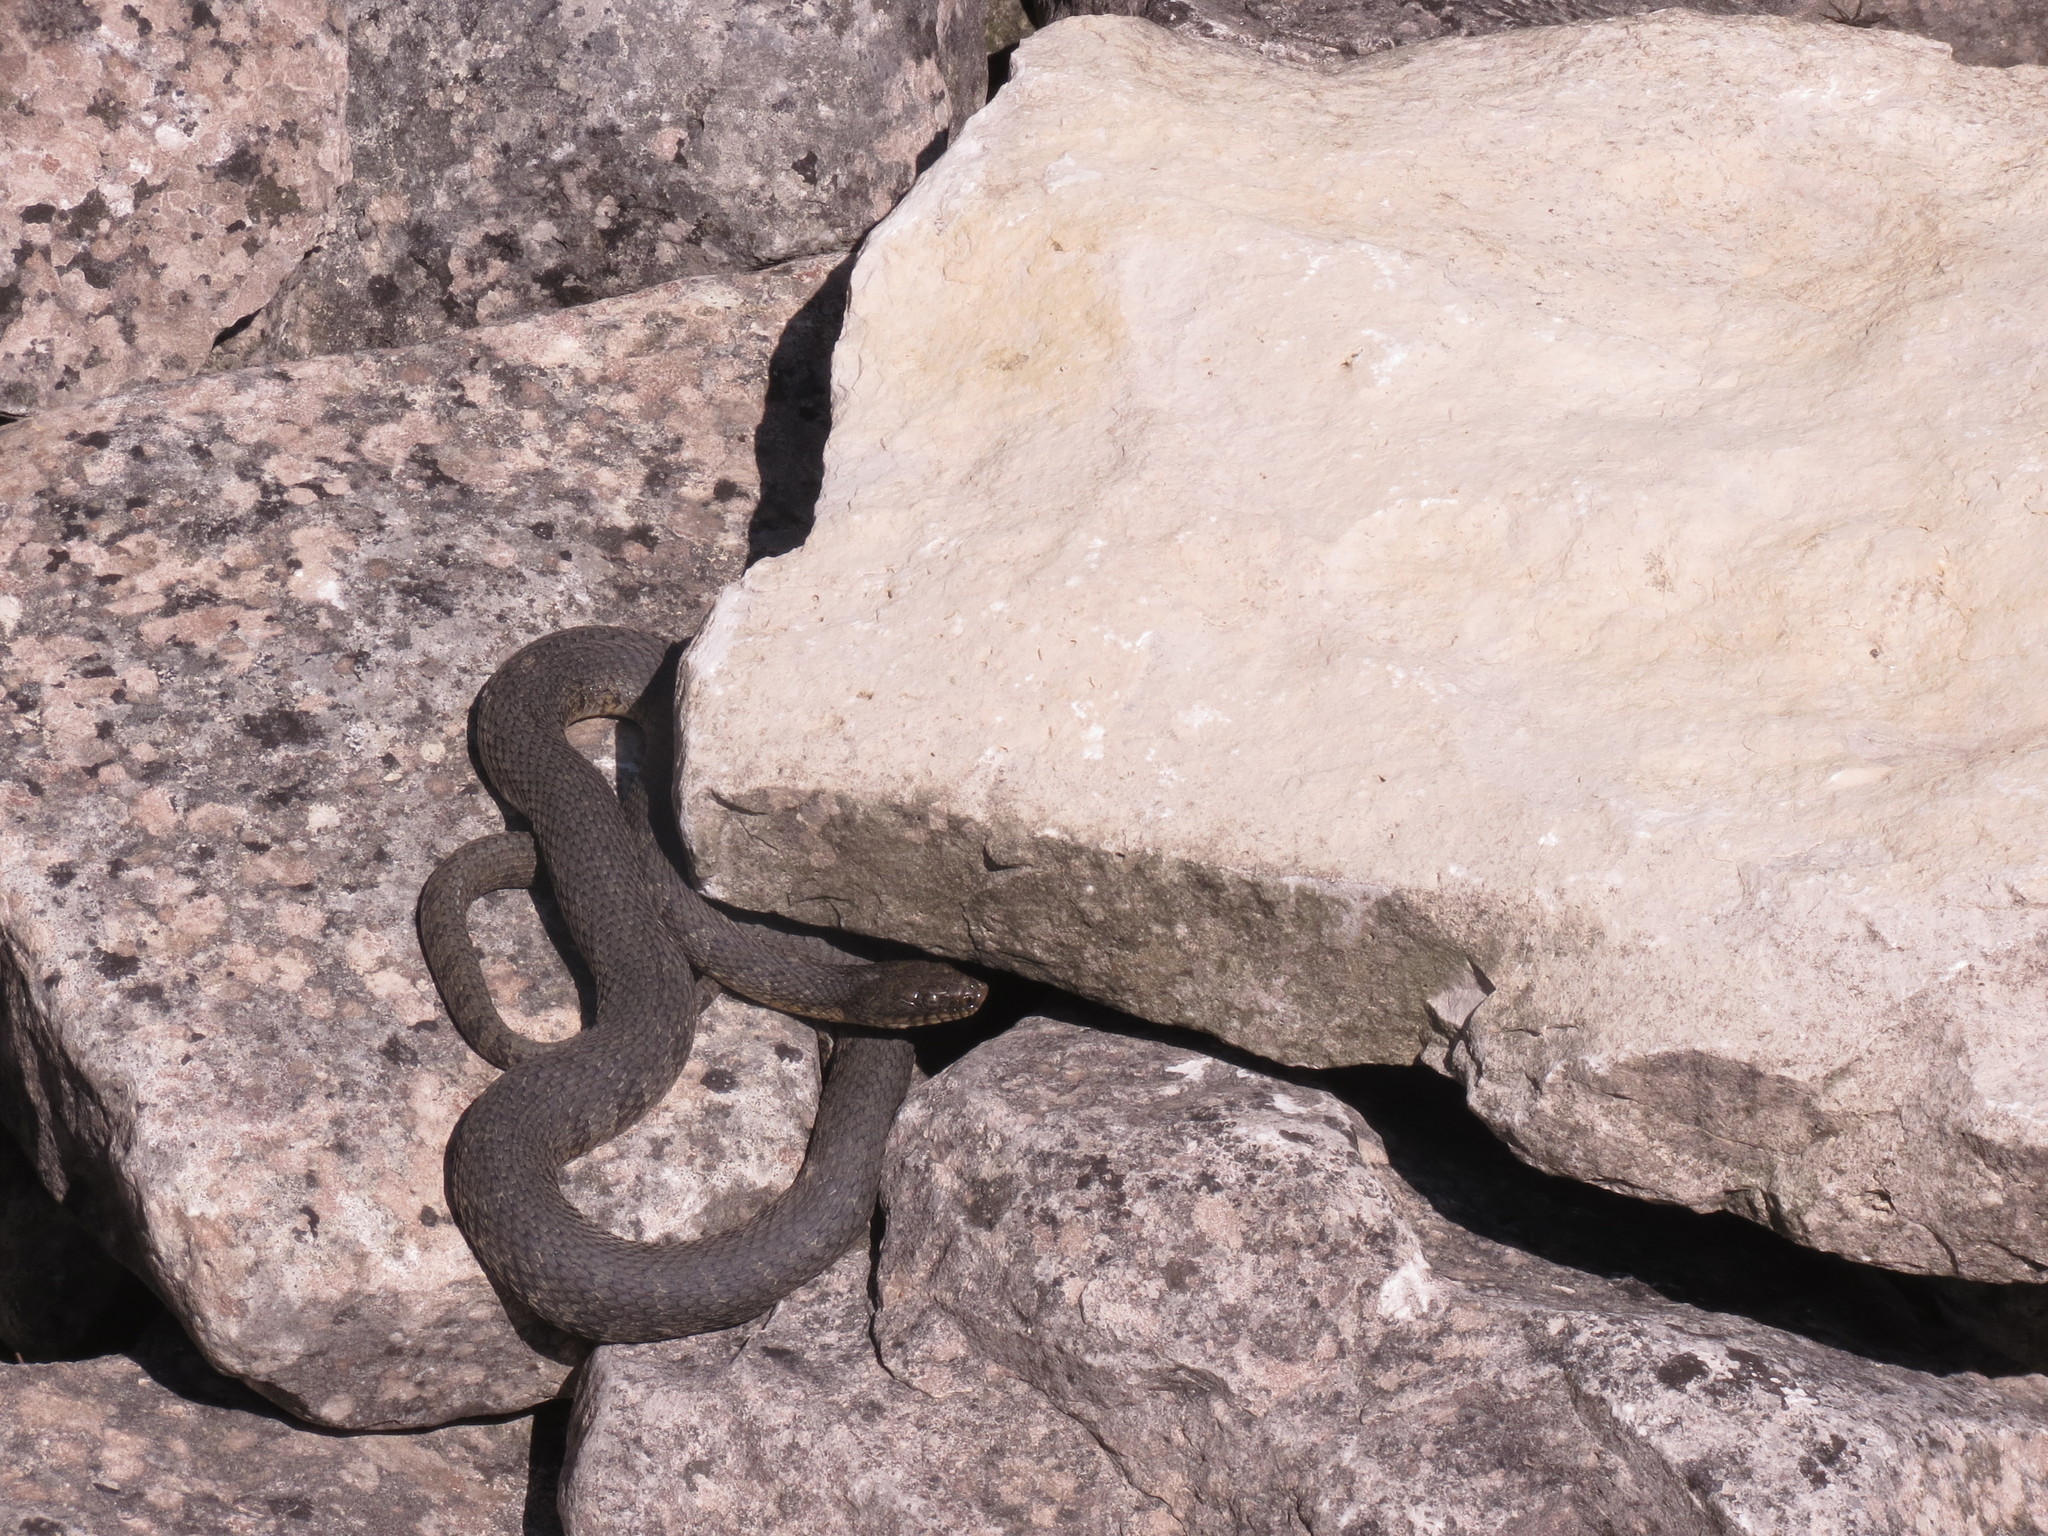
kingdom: Animalia
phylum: Chordata
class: Squamata
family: Colubridae
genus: Nerodia
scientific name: Nerodia sipedon
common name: Northern water snake
